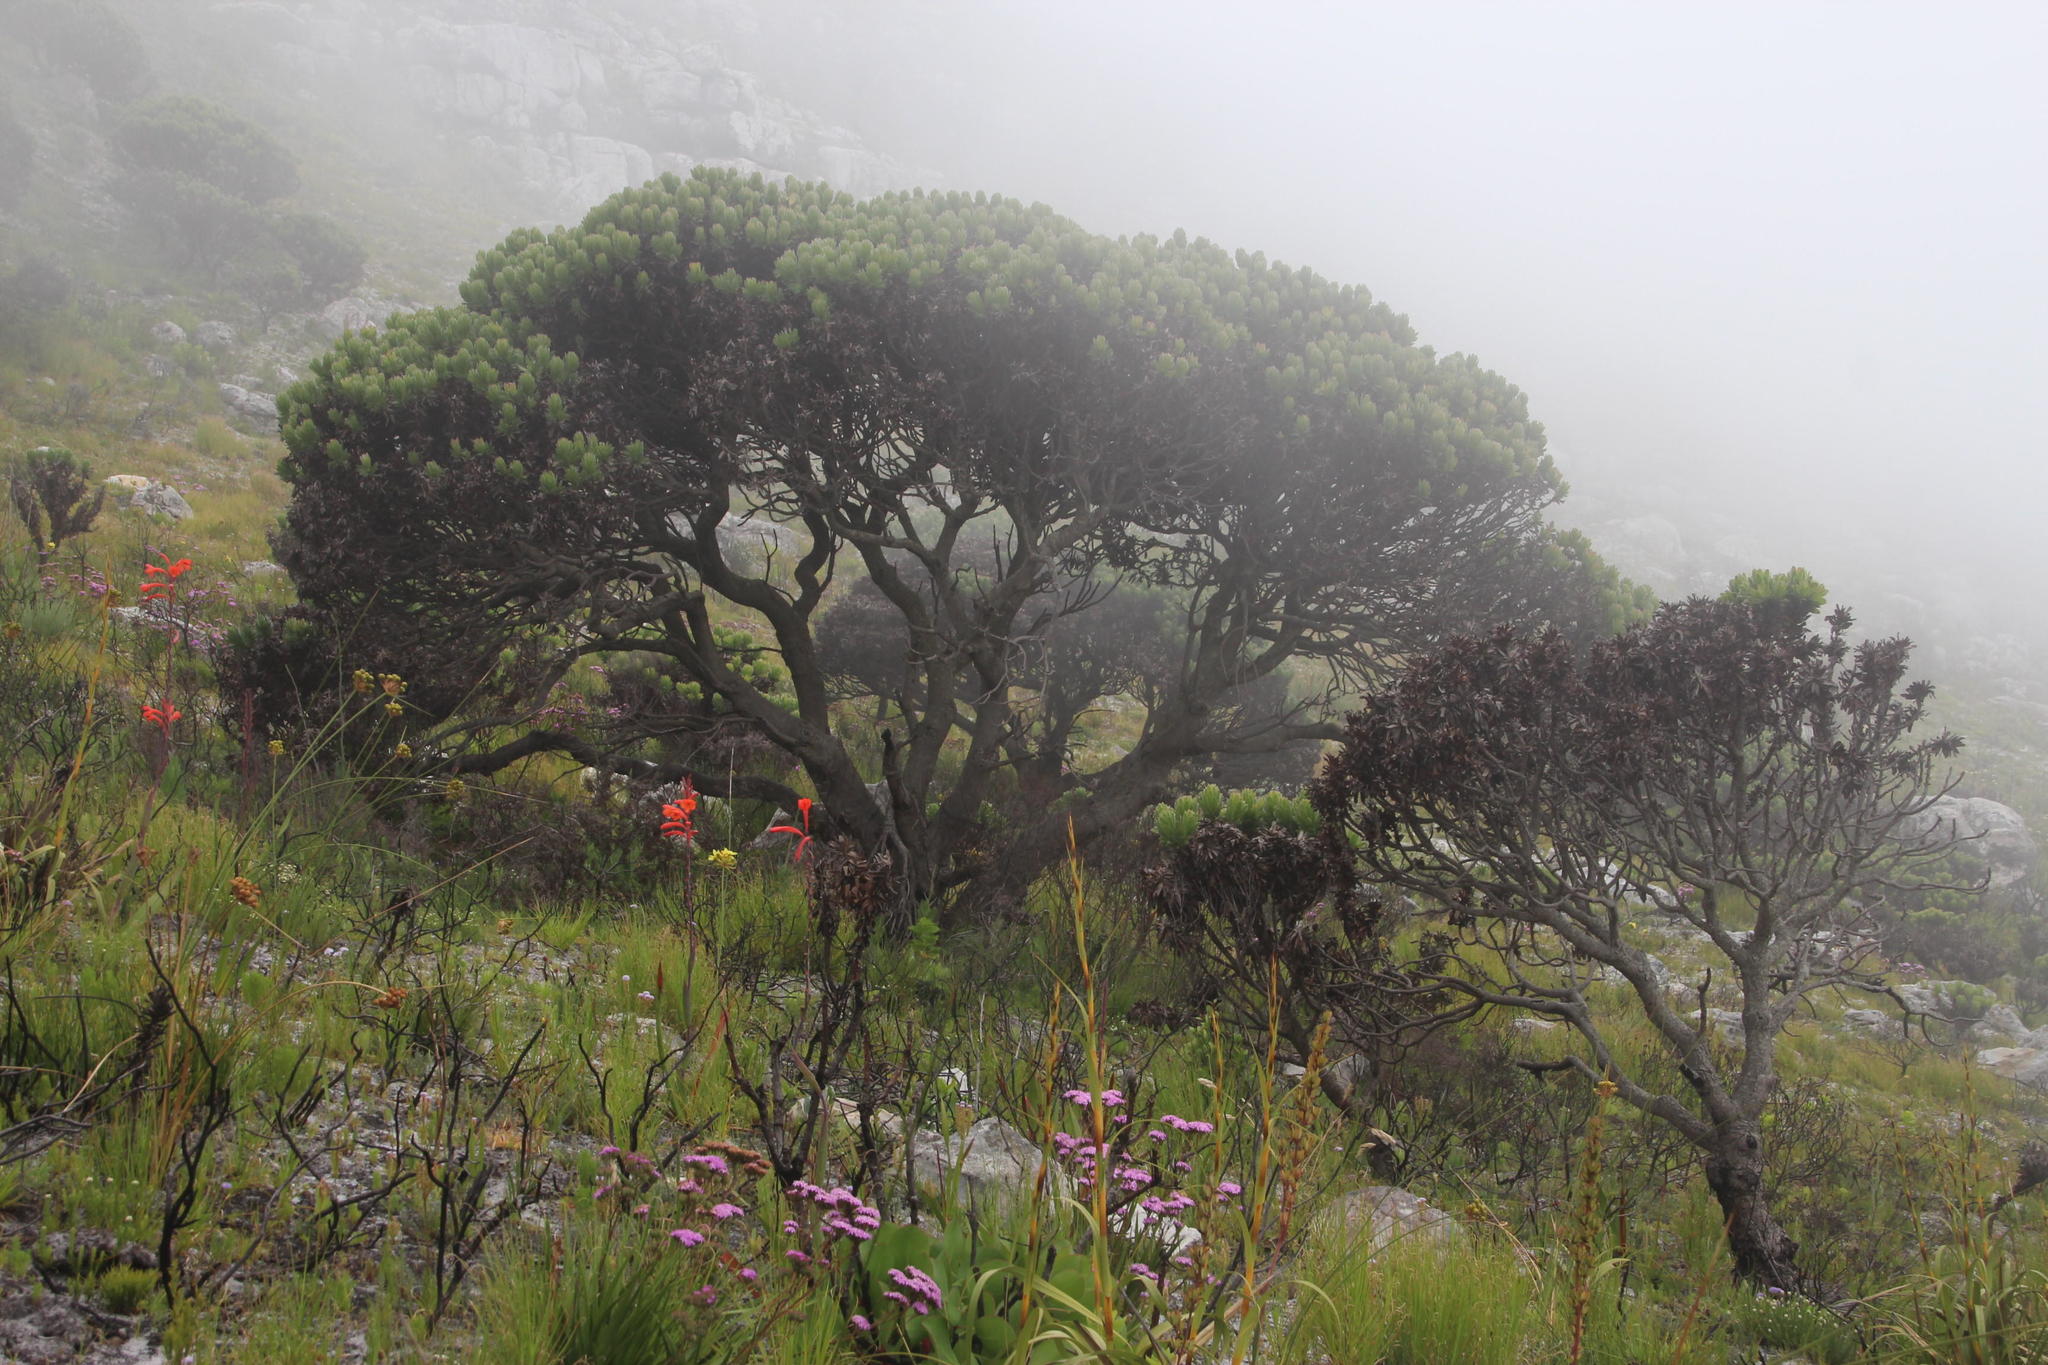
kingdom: Plantae
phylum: Tracheophyta
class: Magnoliopsida
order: Proteales
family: Proteaceae
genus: Mimetes
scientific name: Mimetes fimbriifolius
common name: Fringed bottlebrush
